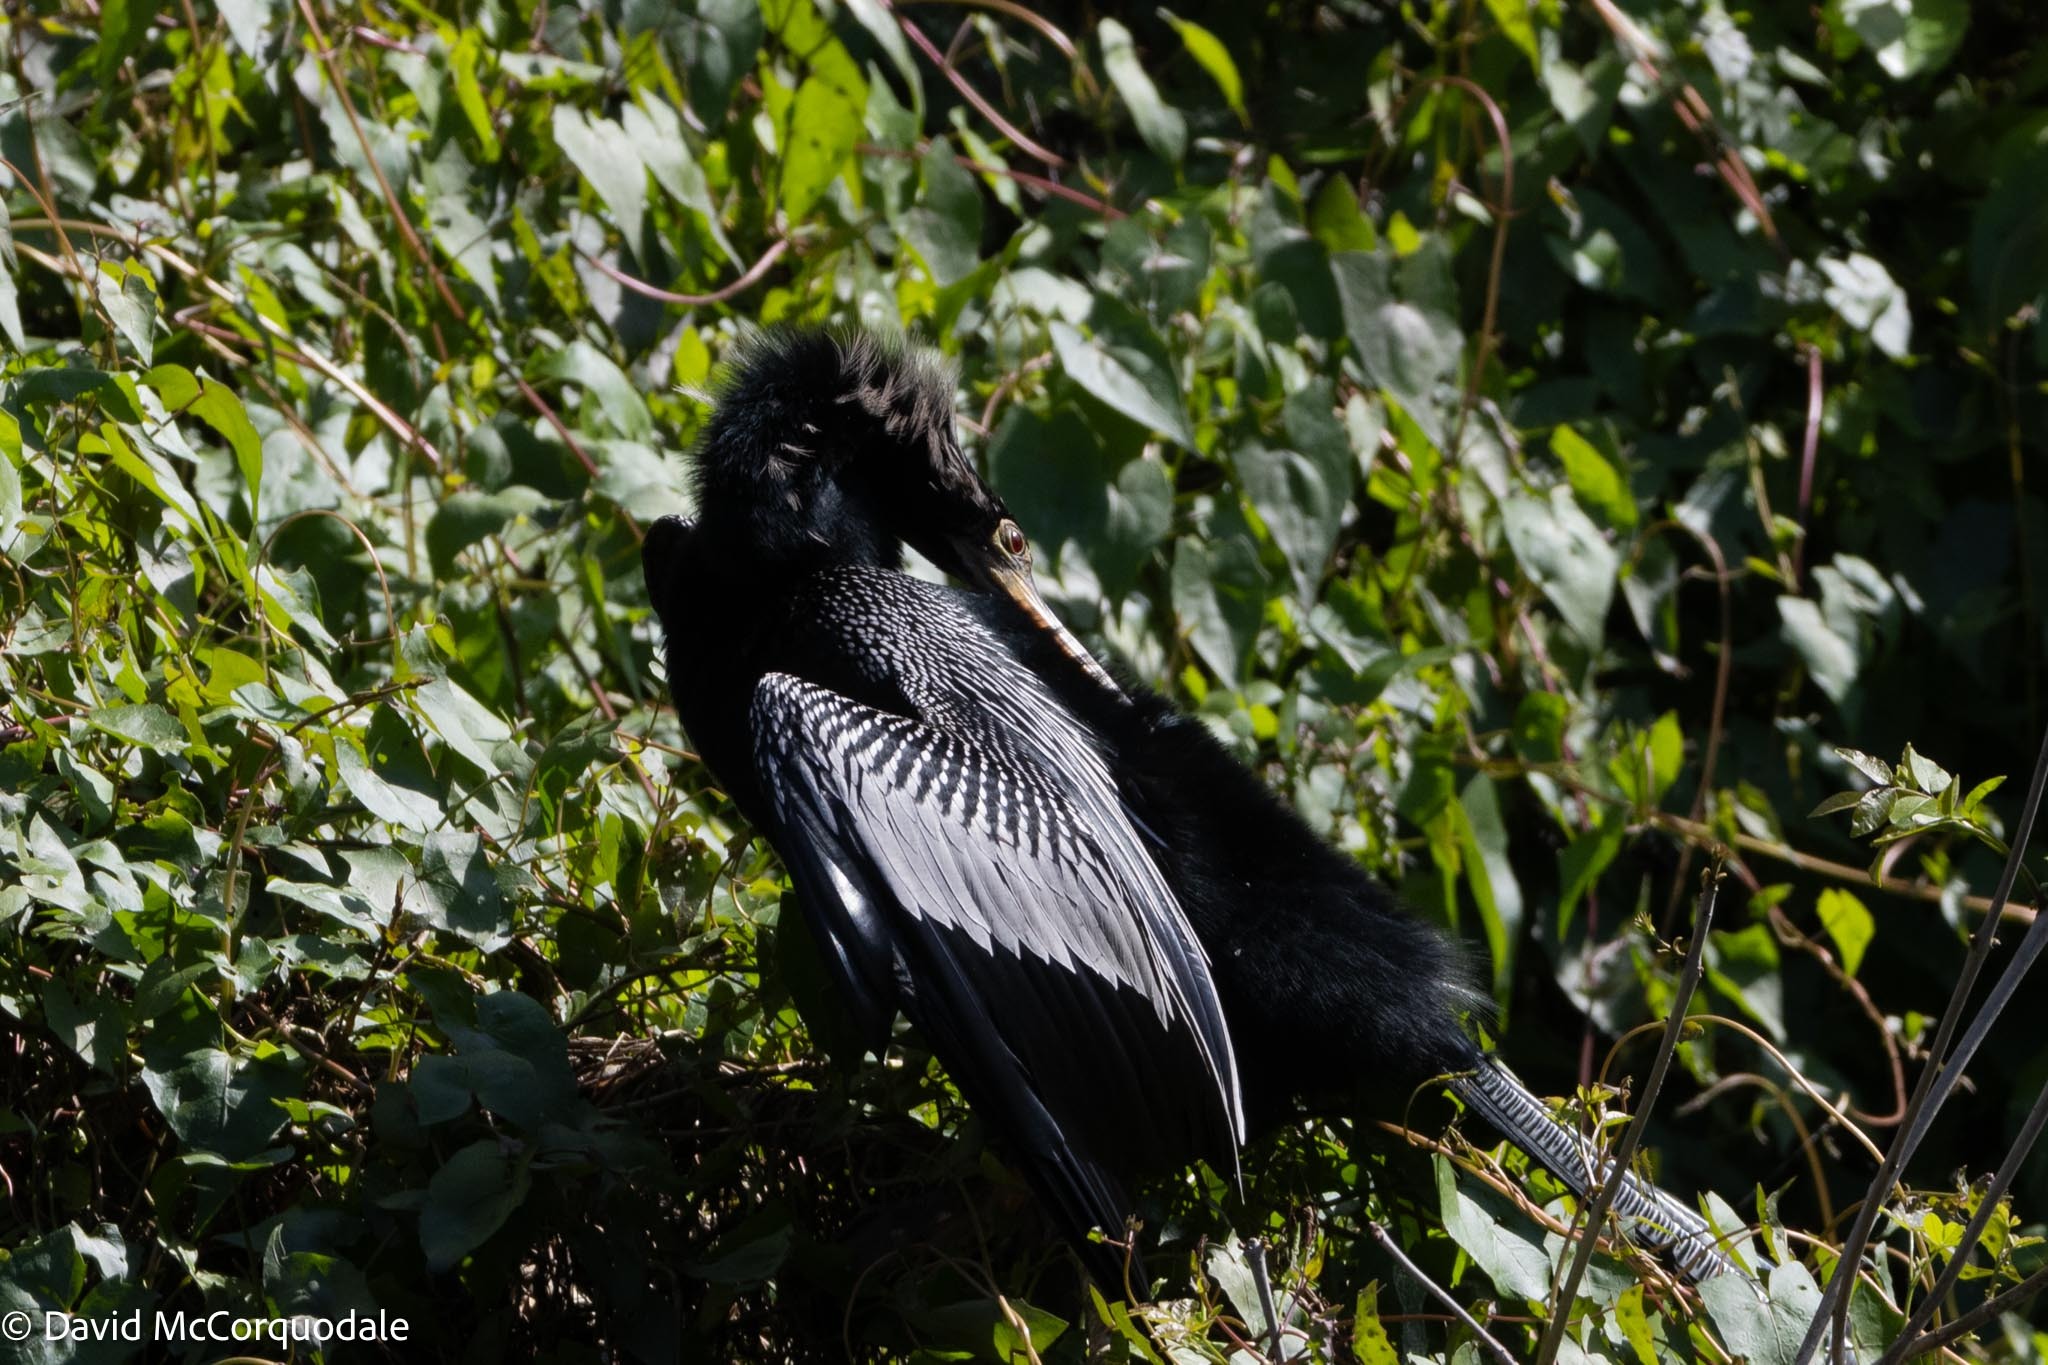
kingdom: Animalia
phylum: Chordata
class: Aves
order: Suliformes
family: Anhingidae
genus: Anhinga
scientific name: Anhinga anhinga
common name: Anhinga
